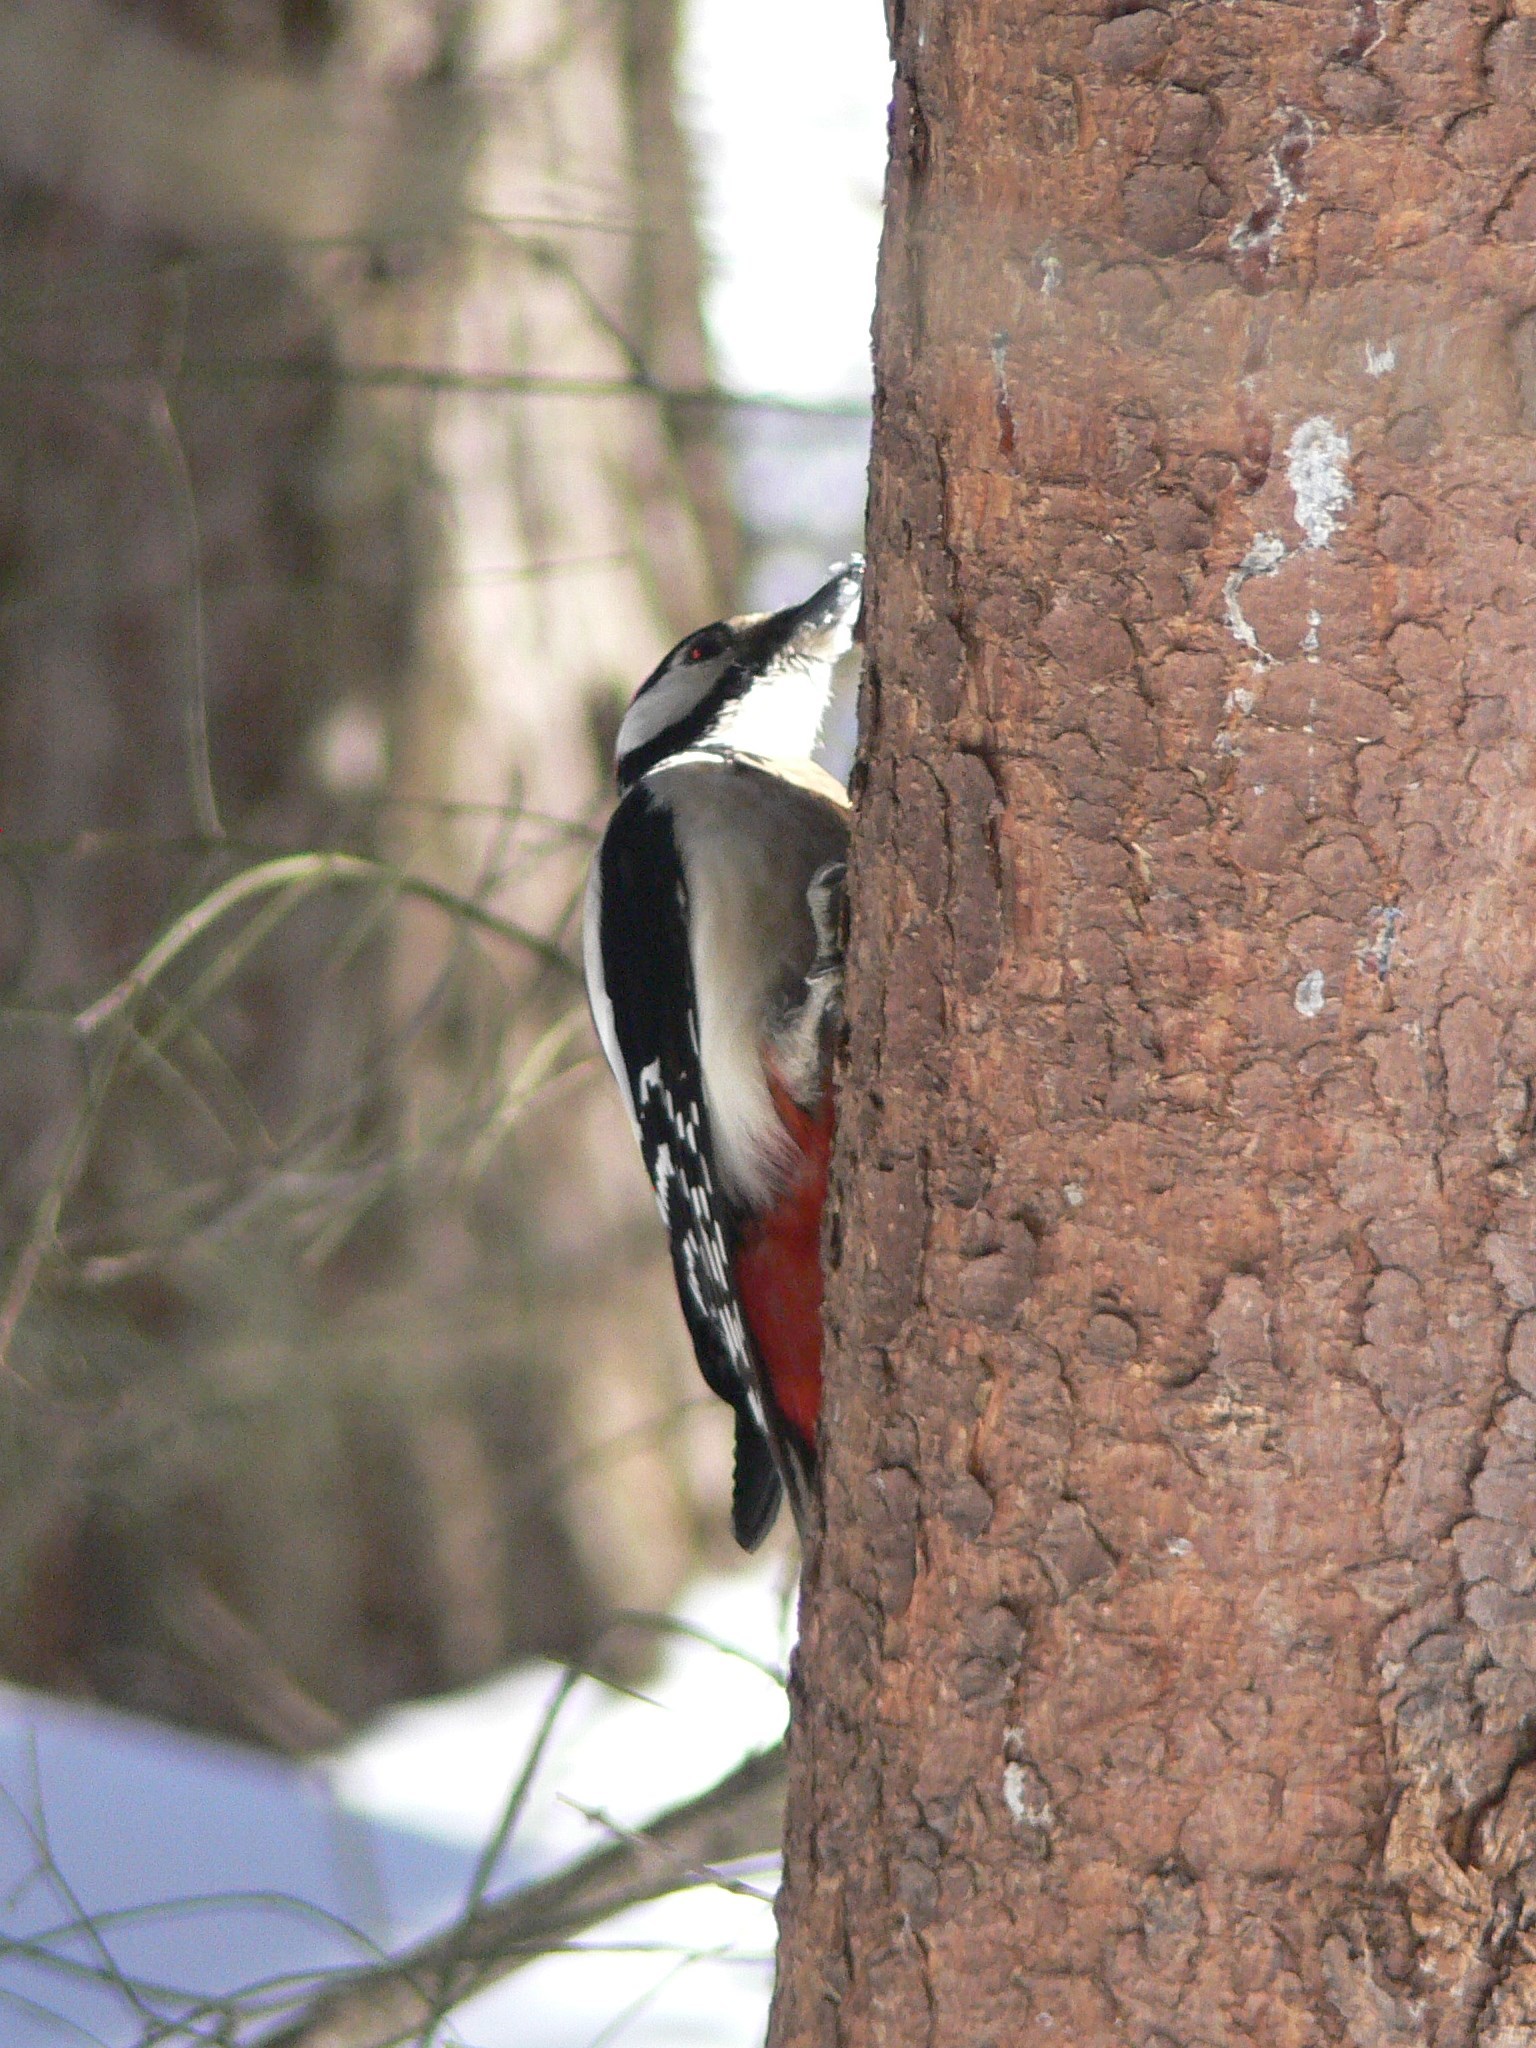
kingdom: Animalia
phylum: Chordata
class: Aves
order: Piciformes
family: Picidae
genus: Dendrocopos
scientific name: Dendrocopos major
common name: Great spotted woodpecker
